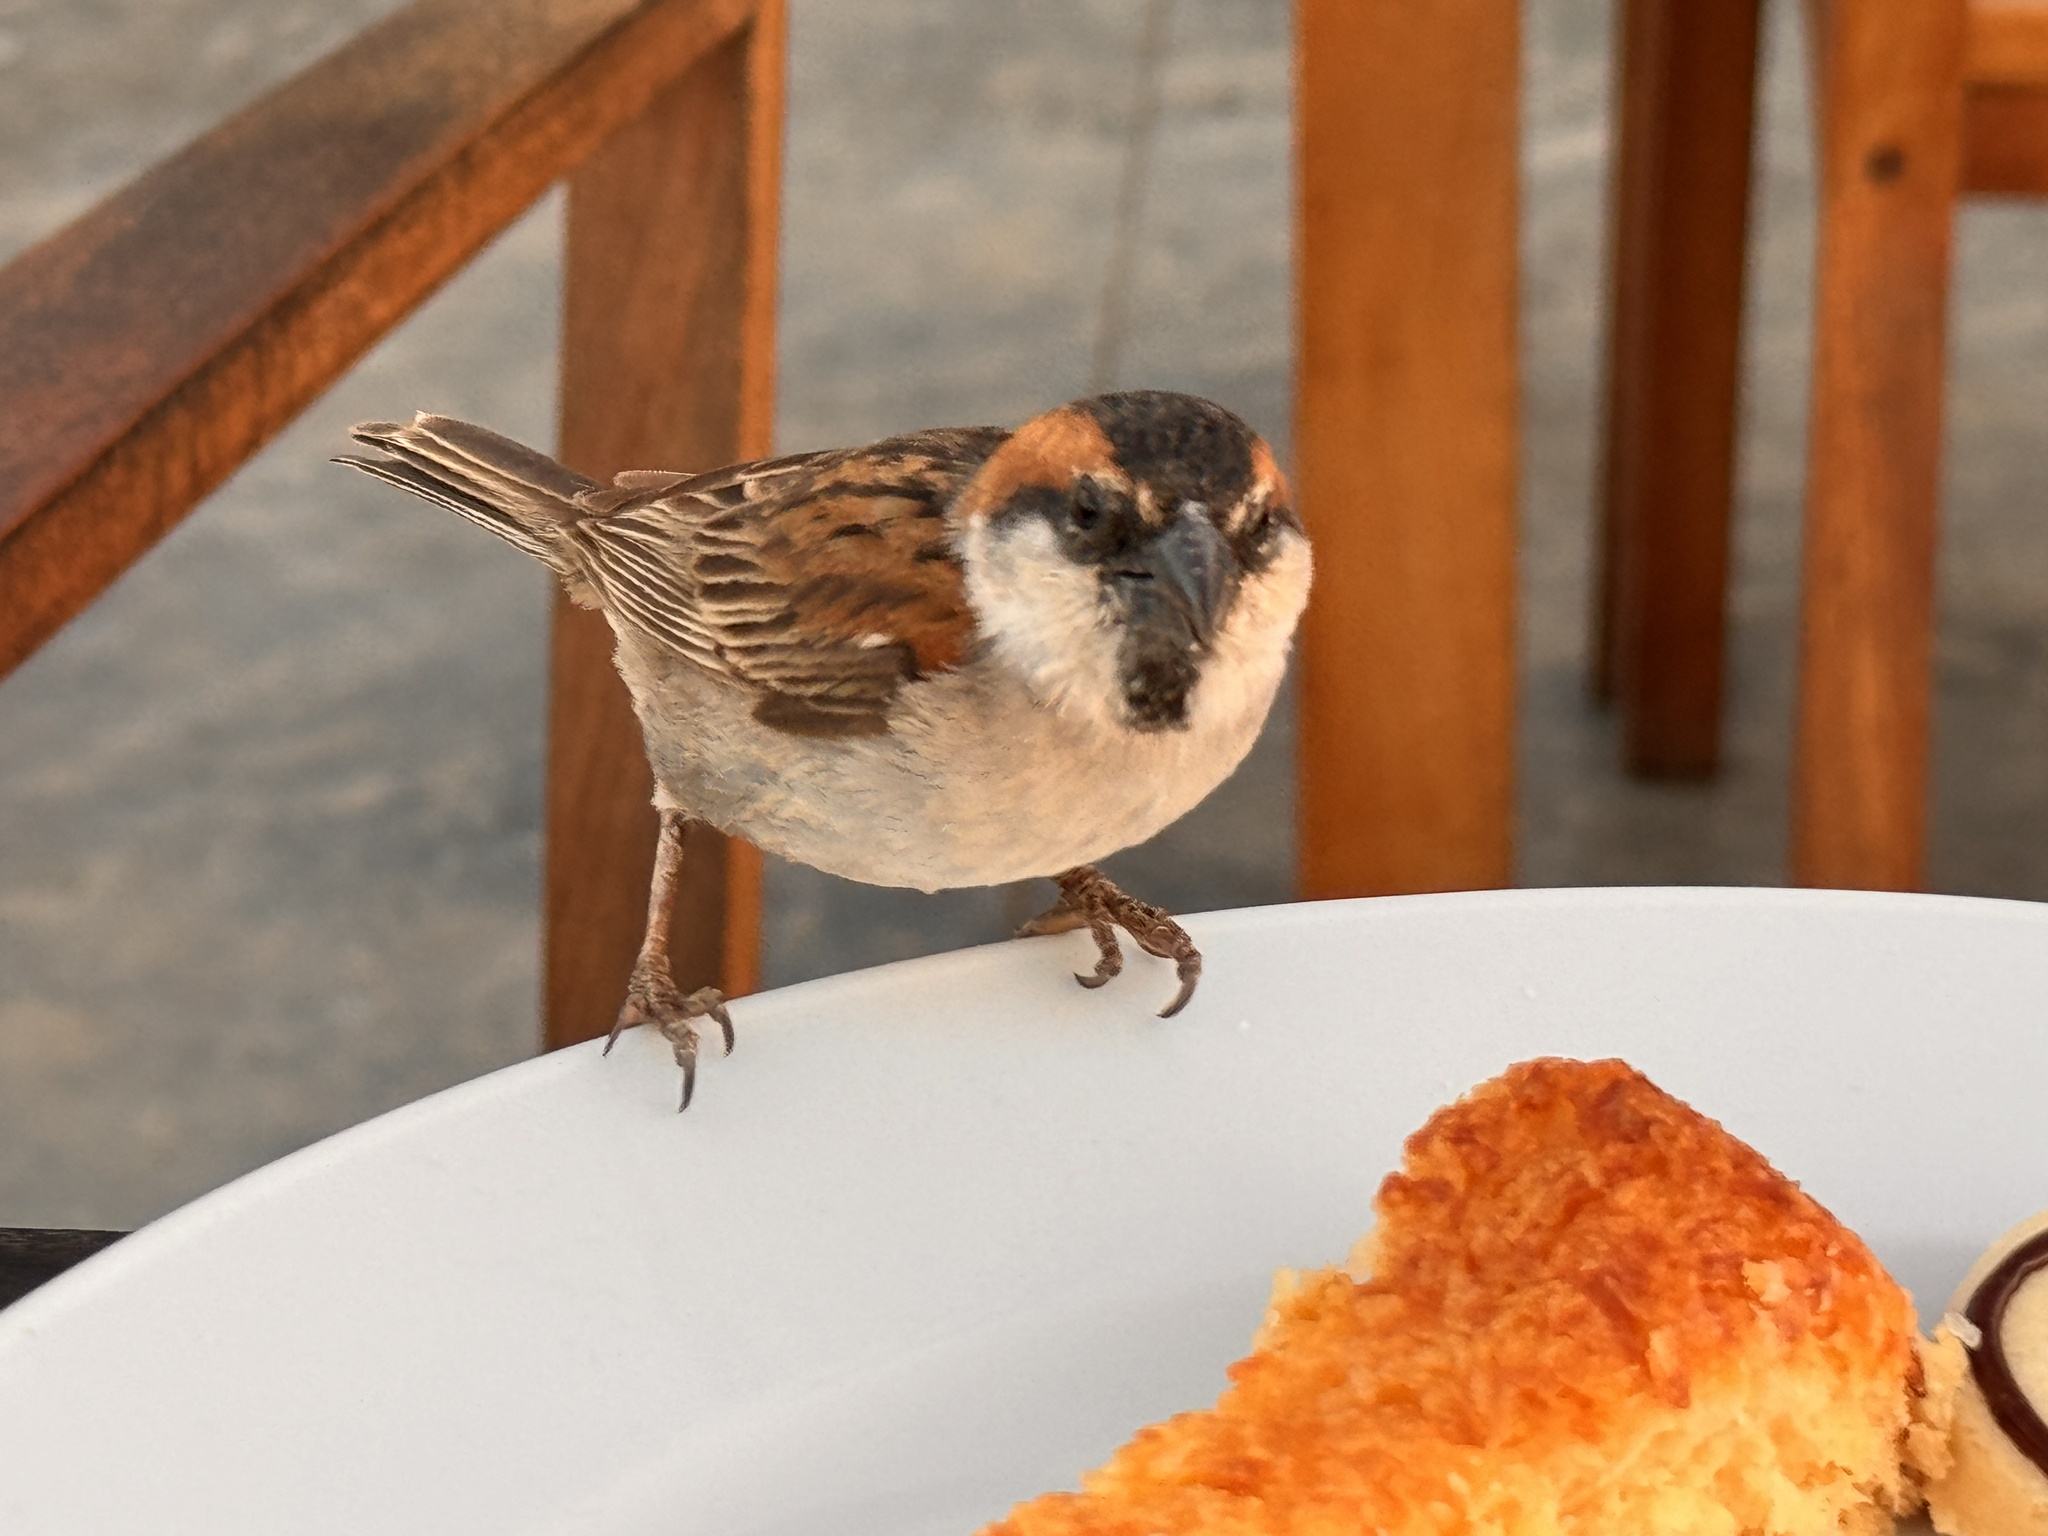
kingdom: Animalia
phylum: Chordata
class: Aves
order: Passeriformes
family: Passeridae
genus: Passer
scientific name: Passer iagoensis
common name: Iago sparrow
